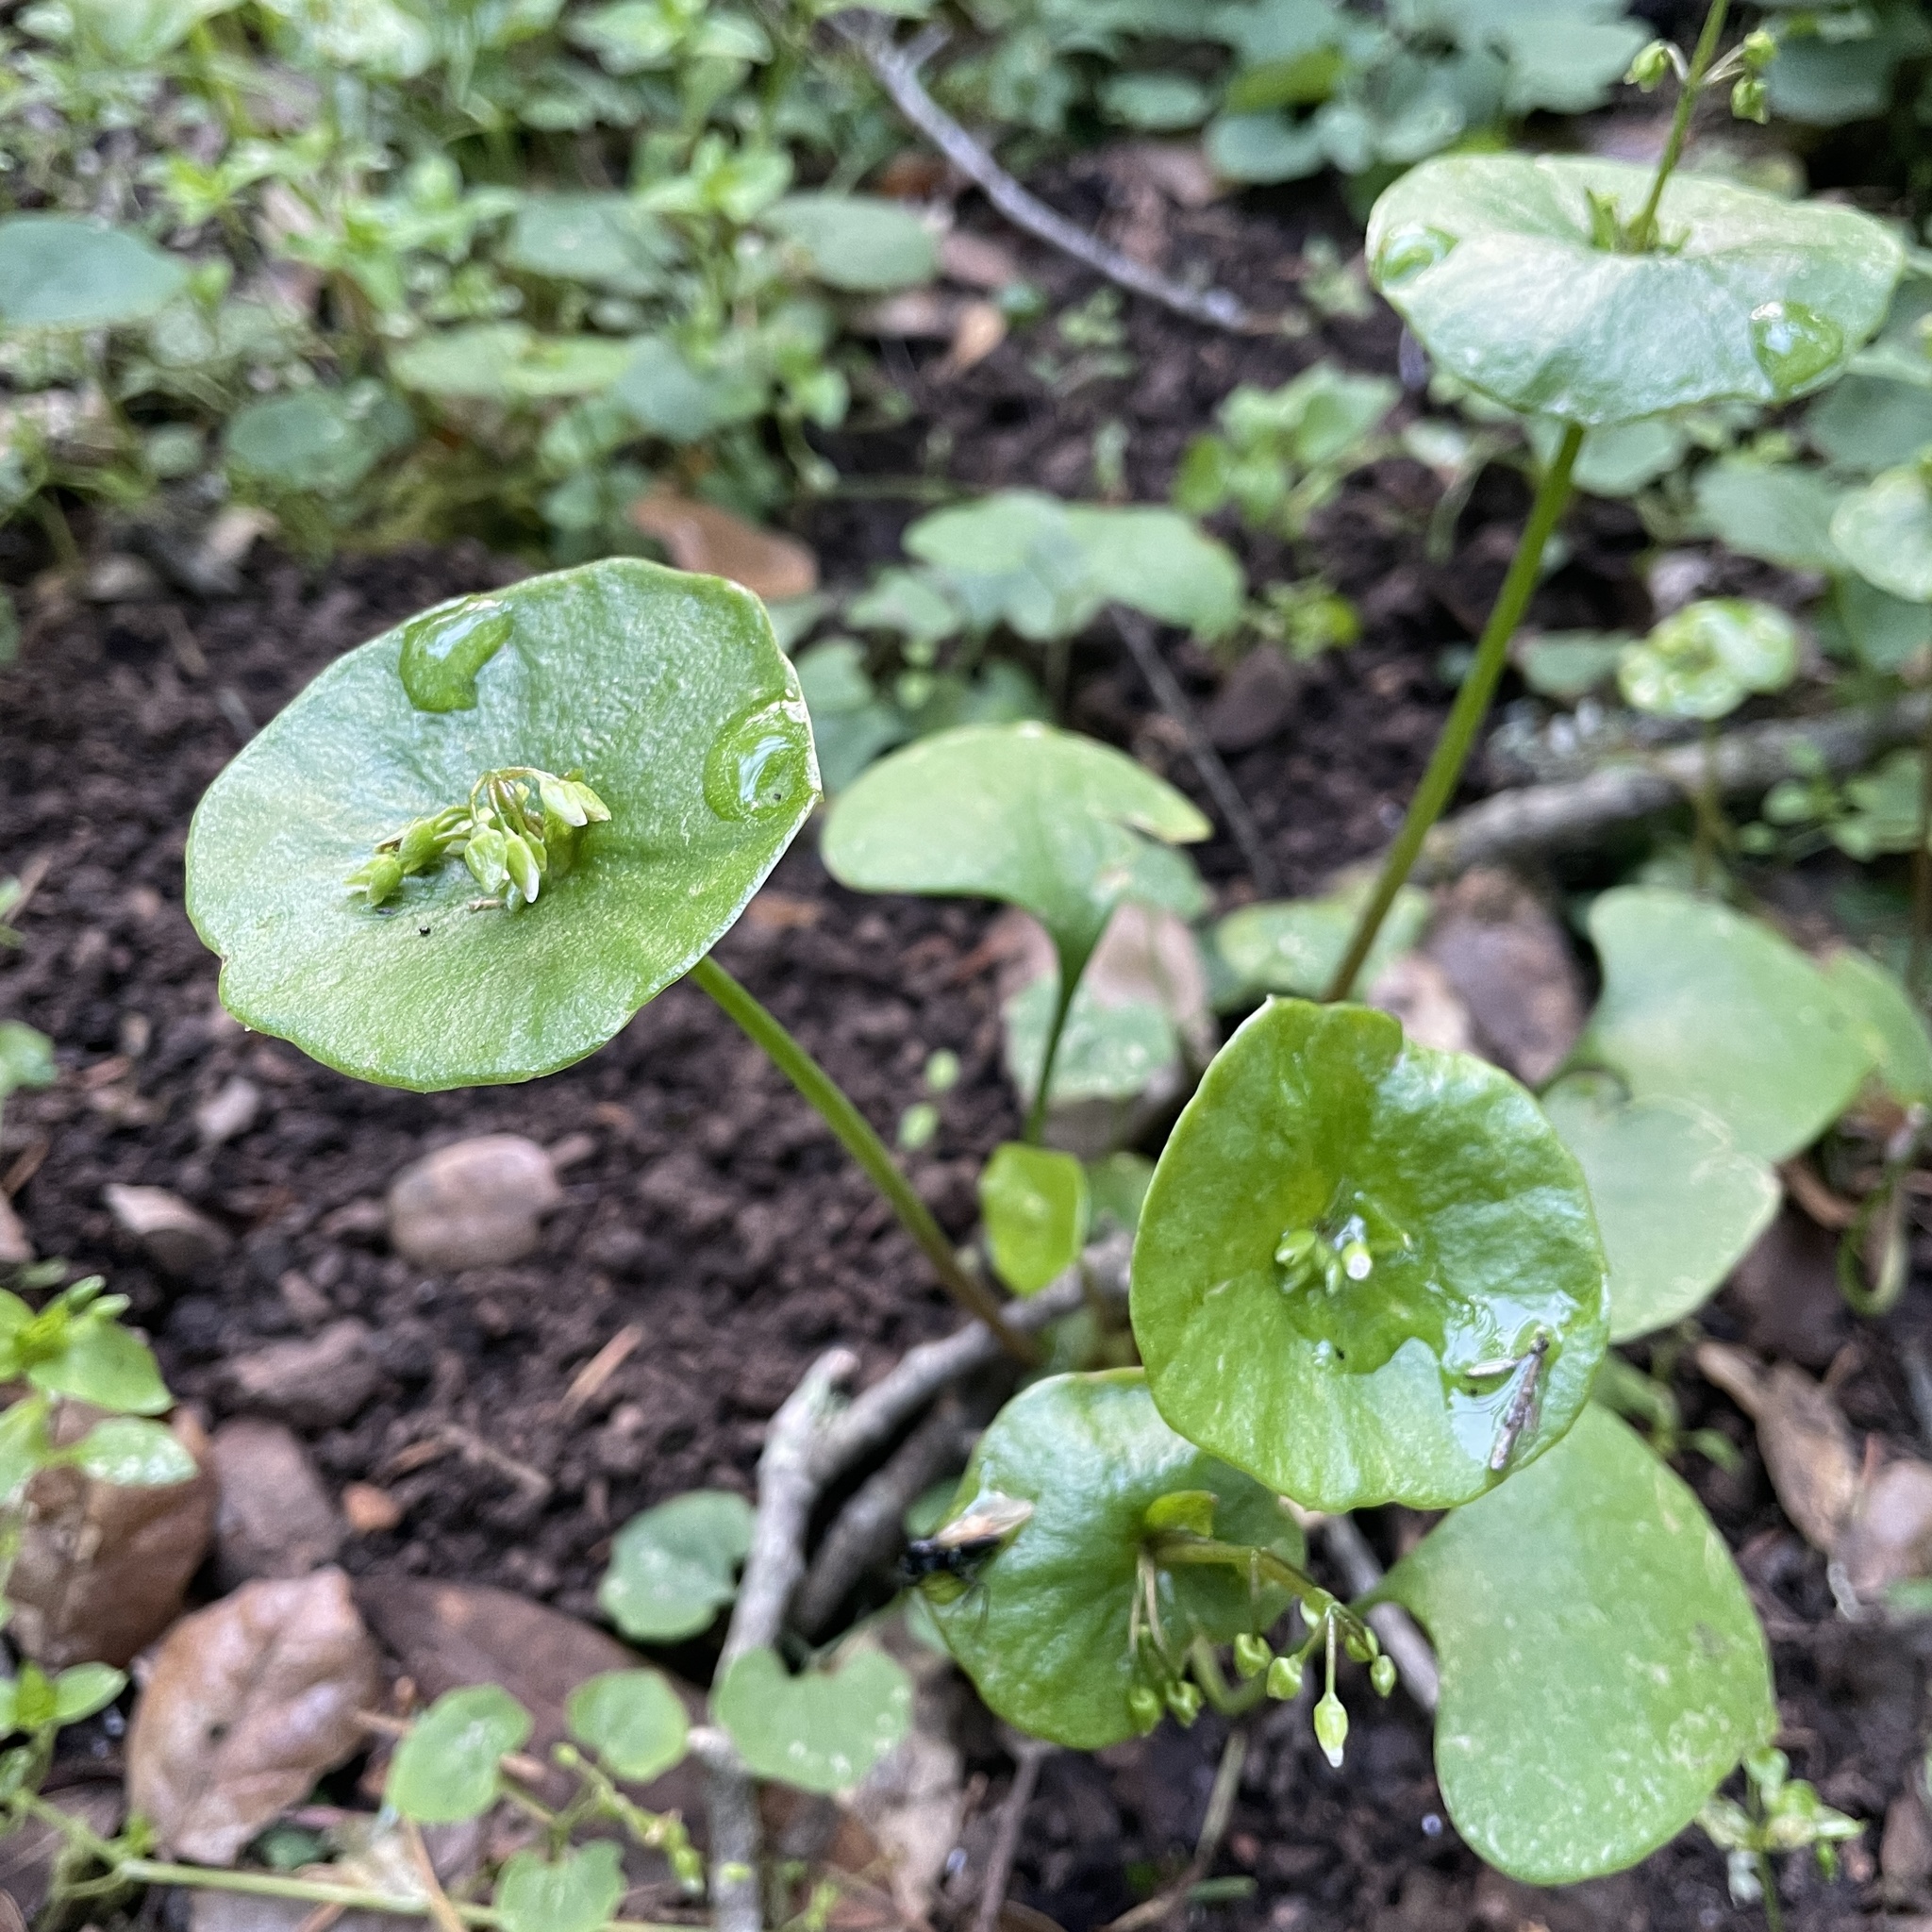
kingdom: Plantae
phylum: Tracheophyta
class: Magnoliopsida
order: Caryophyllales
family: Montiaceae
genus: Claytonia
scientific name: Claytonia perfoliata
